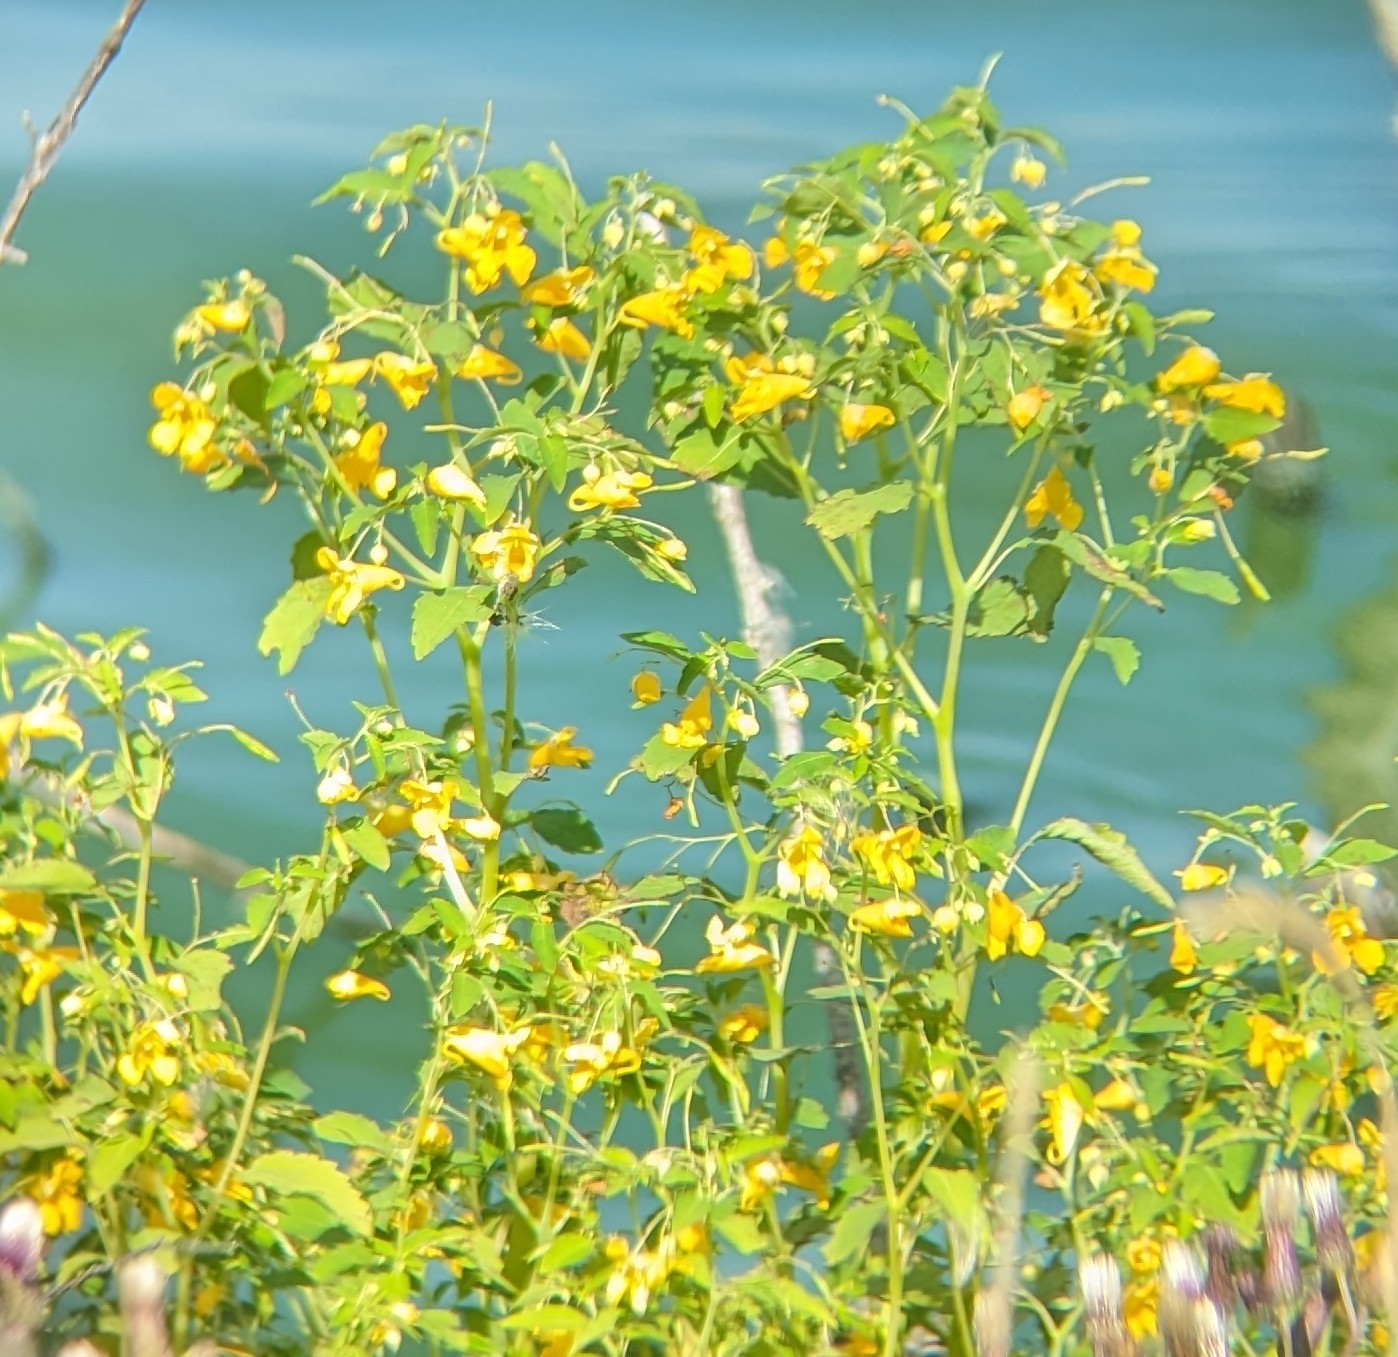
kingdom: Plantae
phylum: Tracheophyta
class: Magnoliopsida
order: Ericales
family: Balsaminaceae
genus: Impatiens
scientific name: Impatiens capensis
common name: Orange balsam
